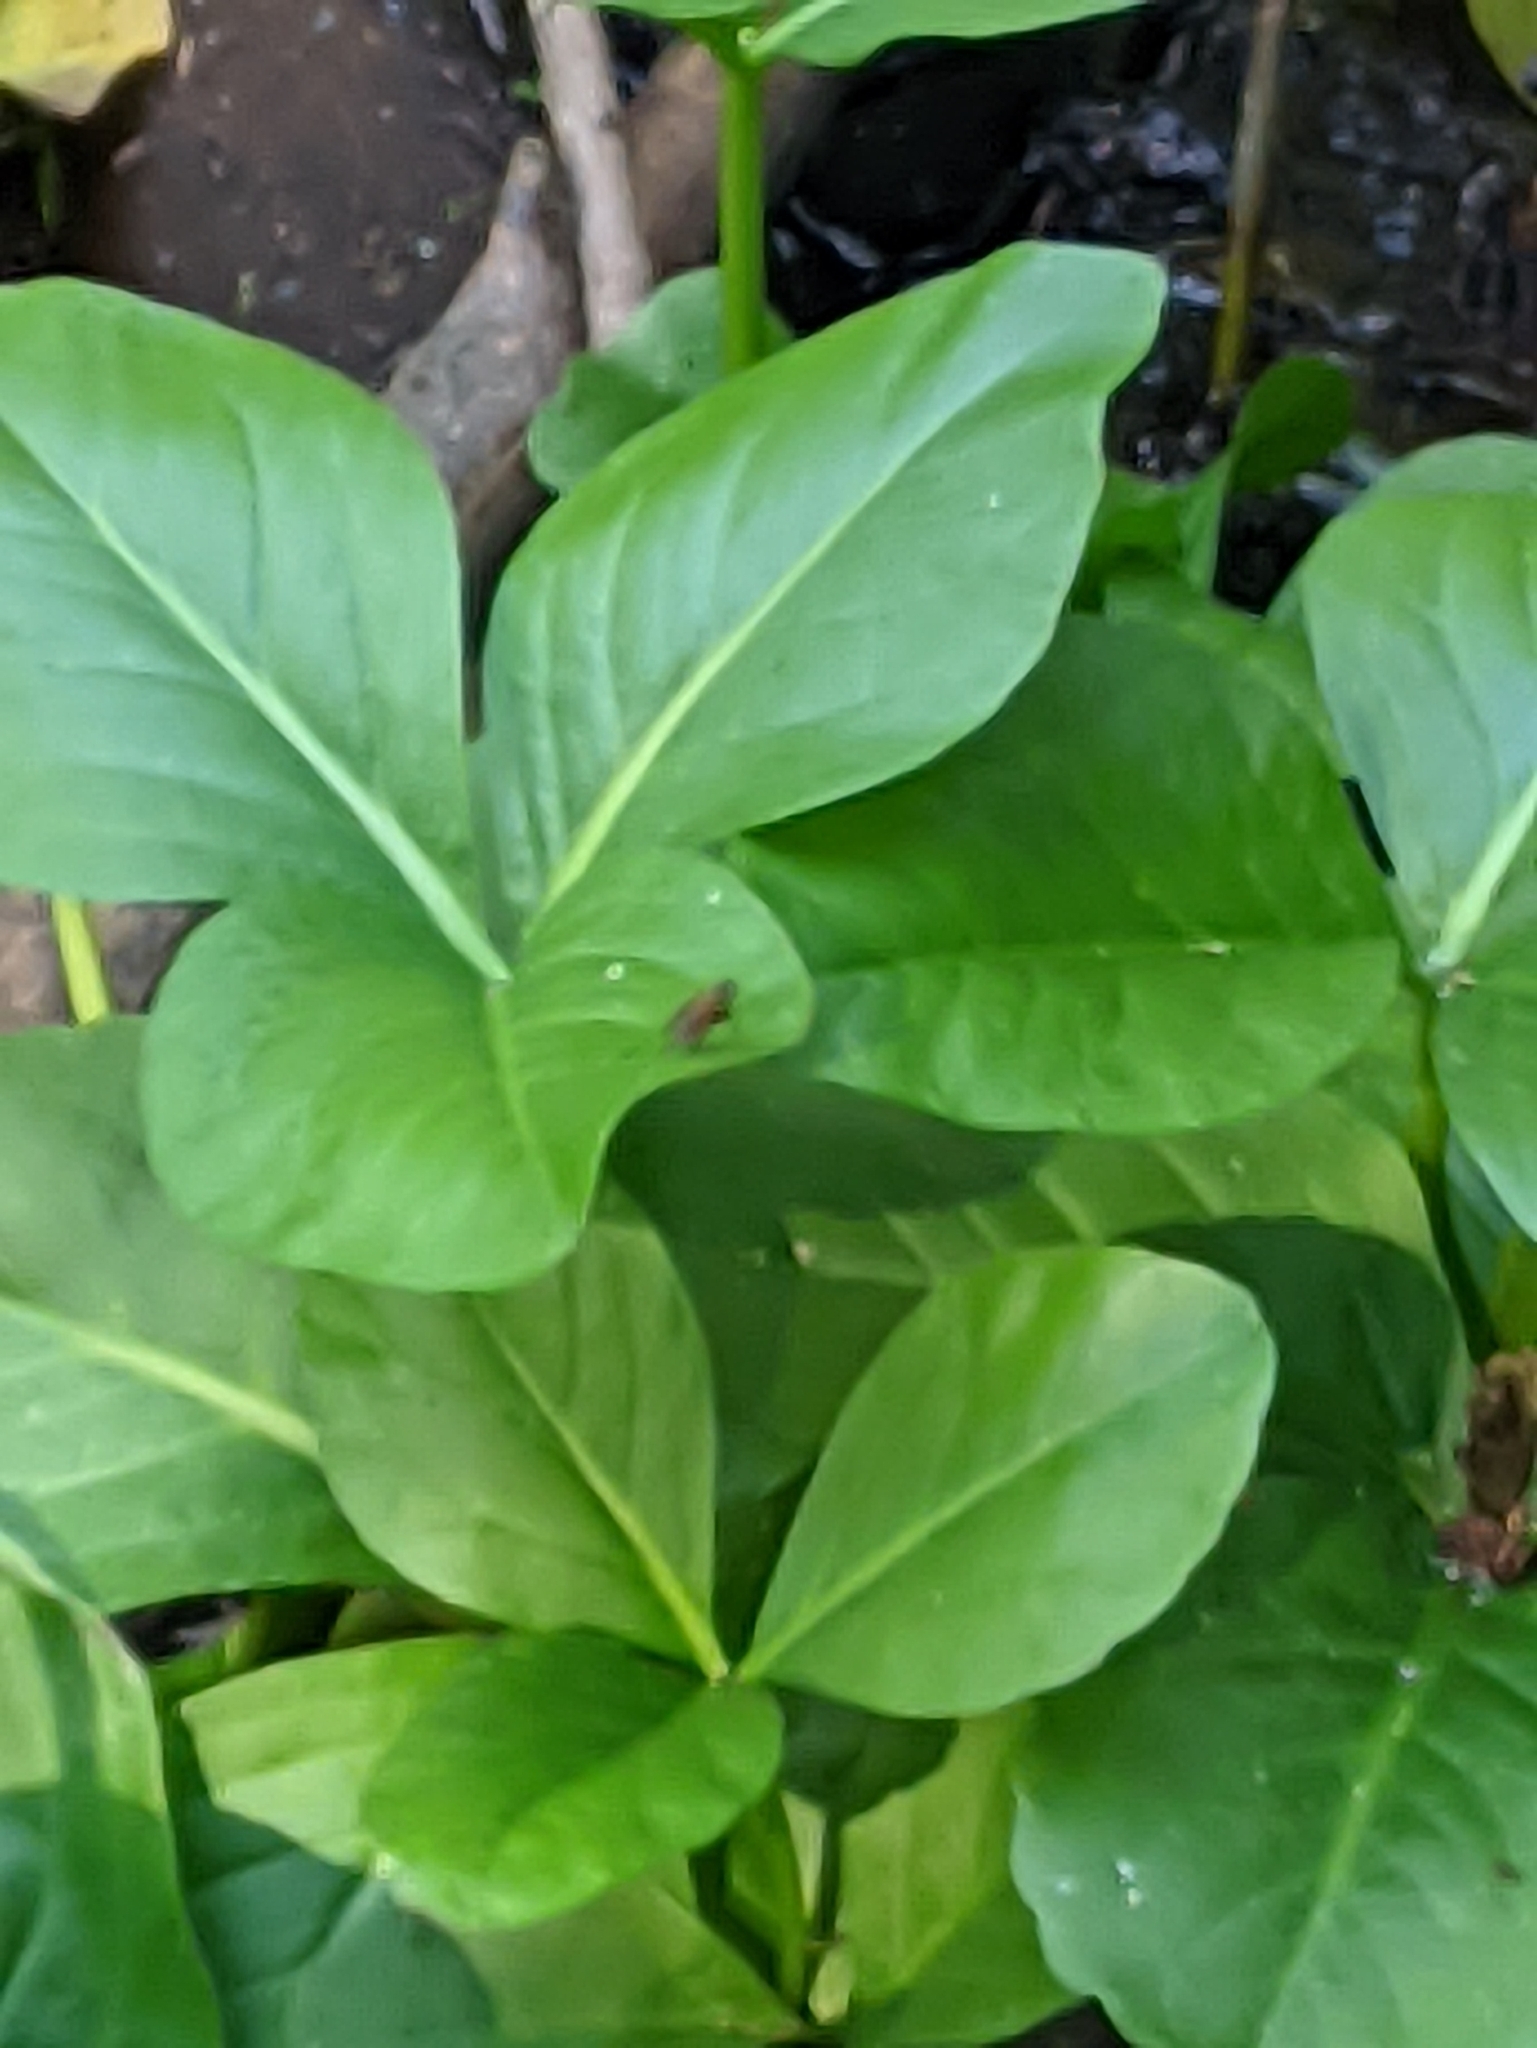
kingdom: Plantae
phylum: Tracheophyta
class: Magnoliopsida
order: Asterales
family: Menyanthaceae
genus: Menyanthes
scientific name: Menyanthes trifoliata
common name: Bogbean
